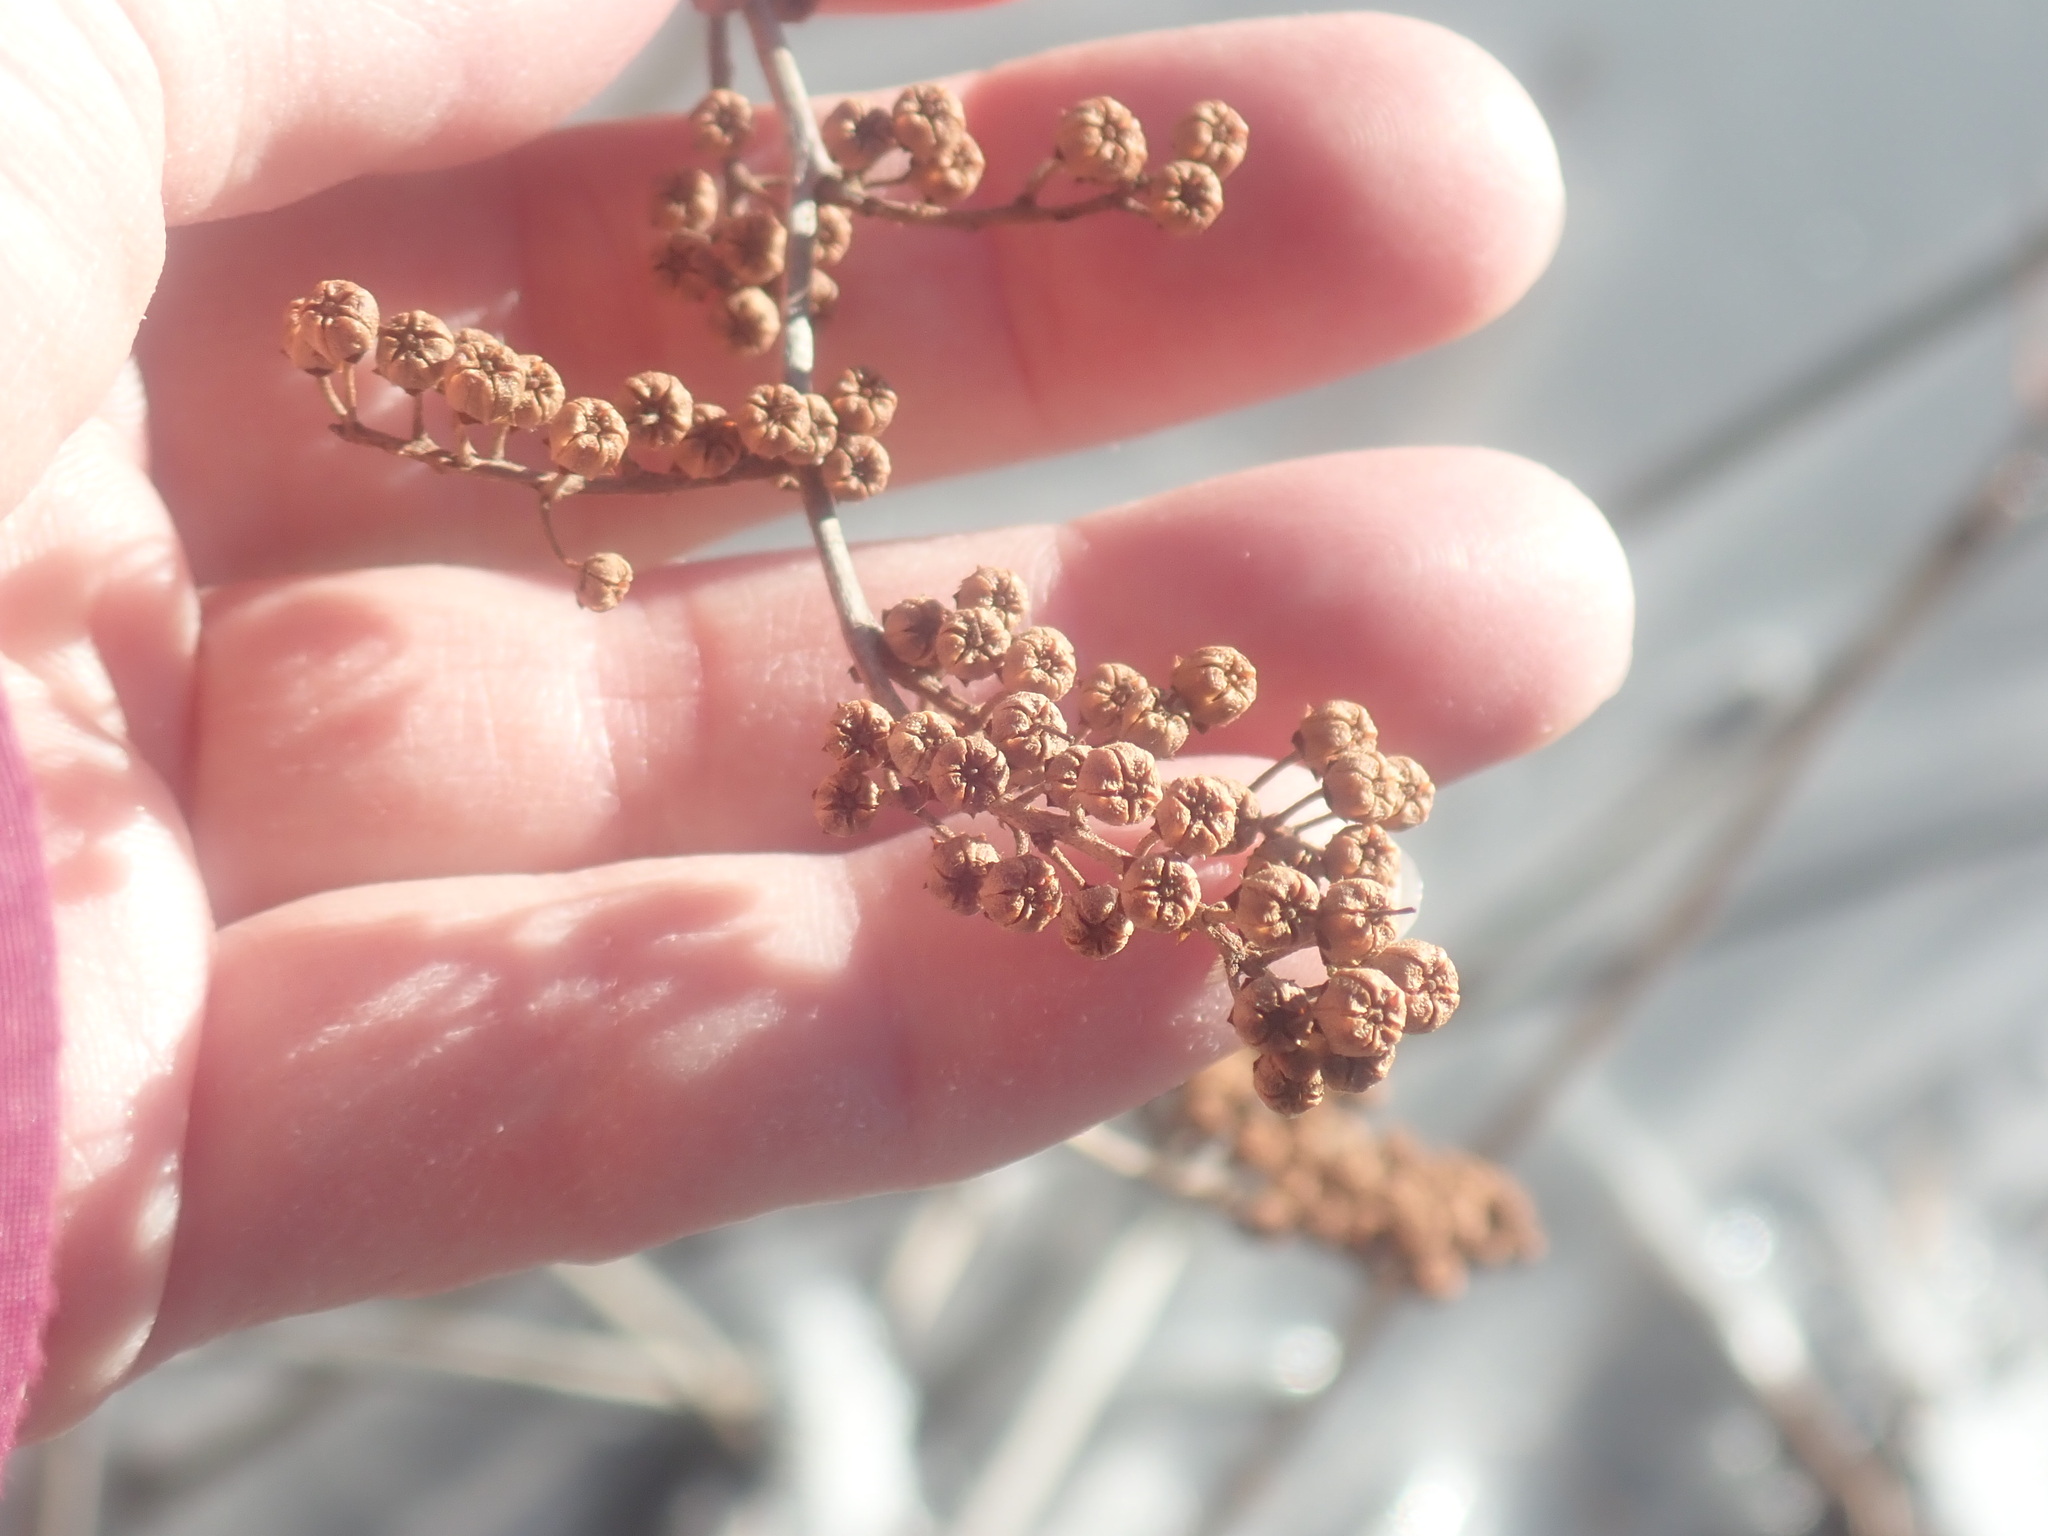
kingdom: Plantae
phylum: Tracheophyta
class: Magnoliopsida
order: Ericales
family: Ericaceae
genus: Lyonia
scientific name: Lyonia ligustrina
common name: Maleberry
